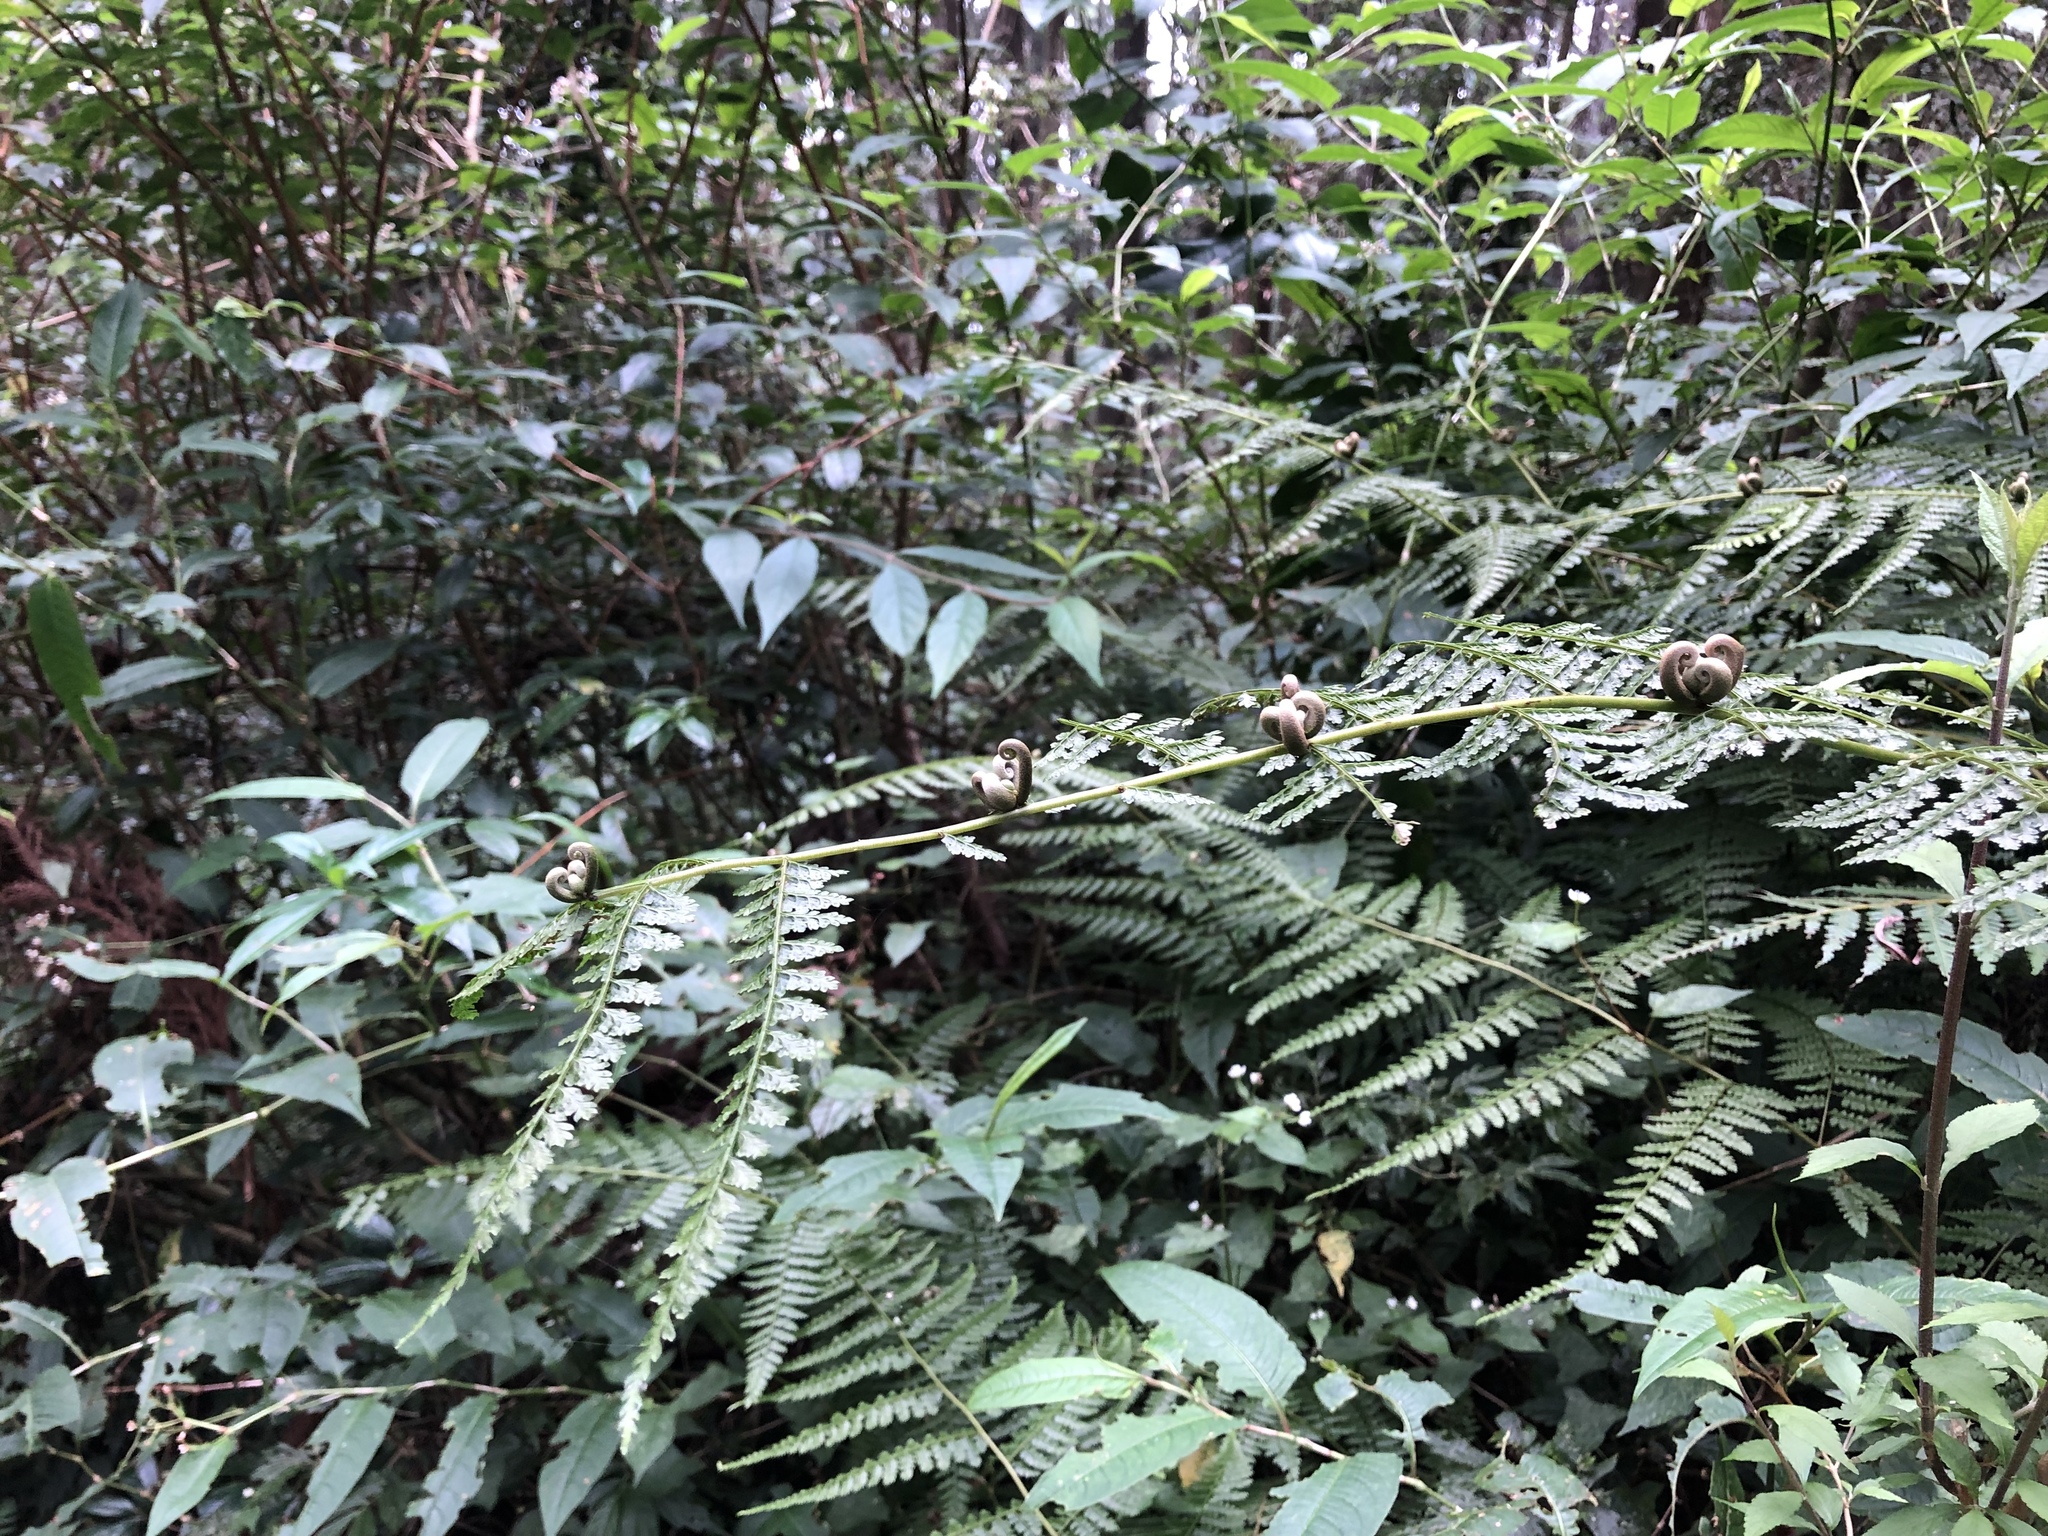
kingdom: Plantae
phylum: Tracheophyta
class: Polypodiopsida
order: Polypodiales
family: Dennstaedtiaceae
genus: Monachosorum
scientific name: Monachosorum henryi
